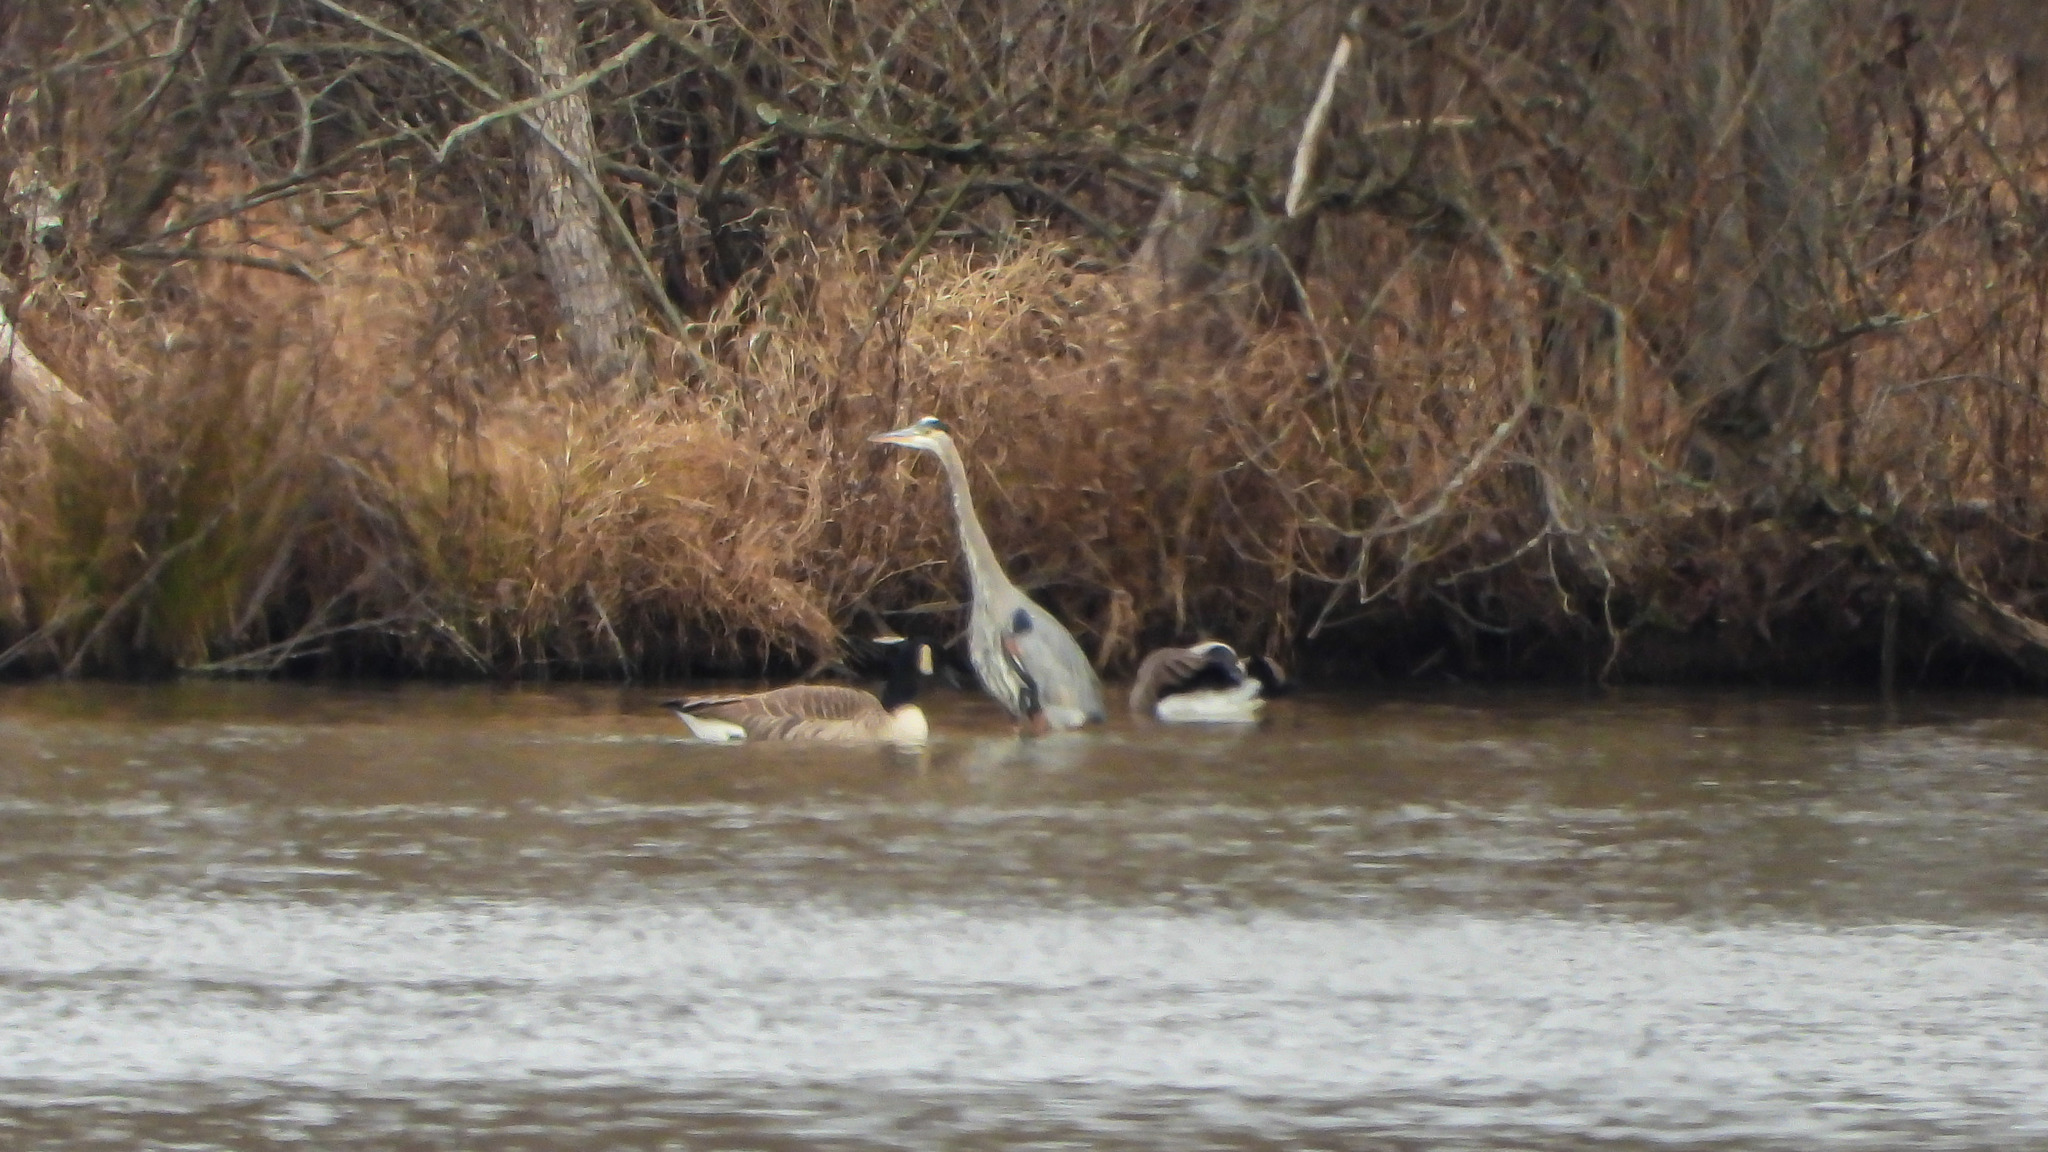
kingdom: Animalia
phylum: Chordata
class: Aves
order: Pelecaniformes
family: Ardeidae
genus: Ardea
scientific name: Ardea herodias
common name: Great blue heron
